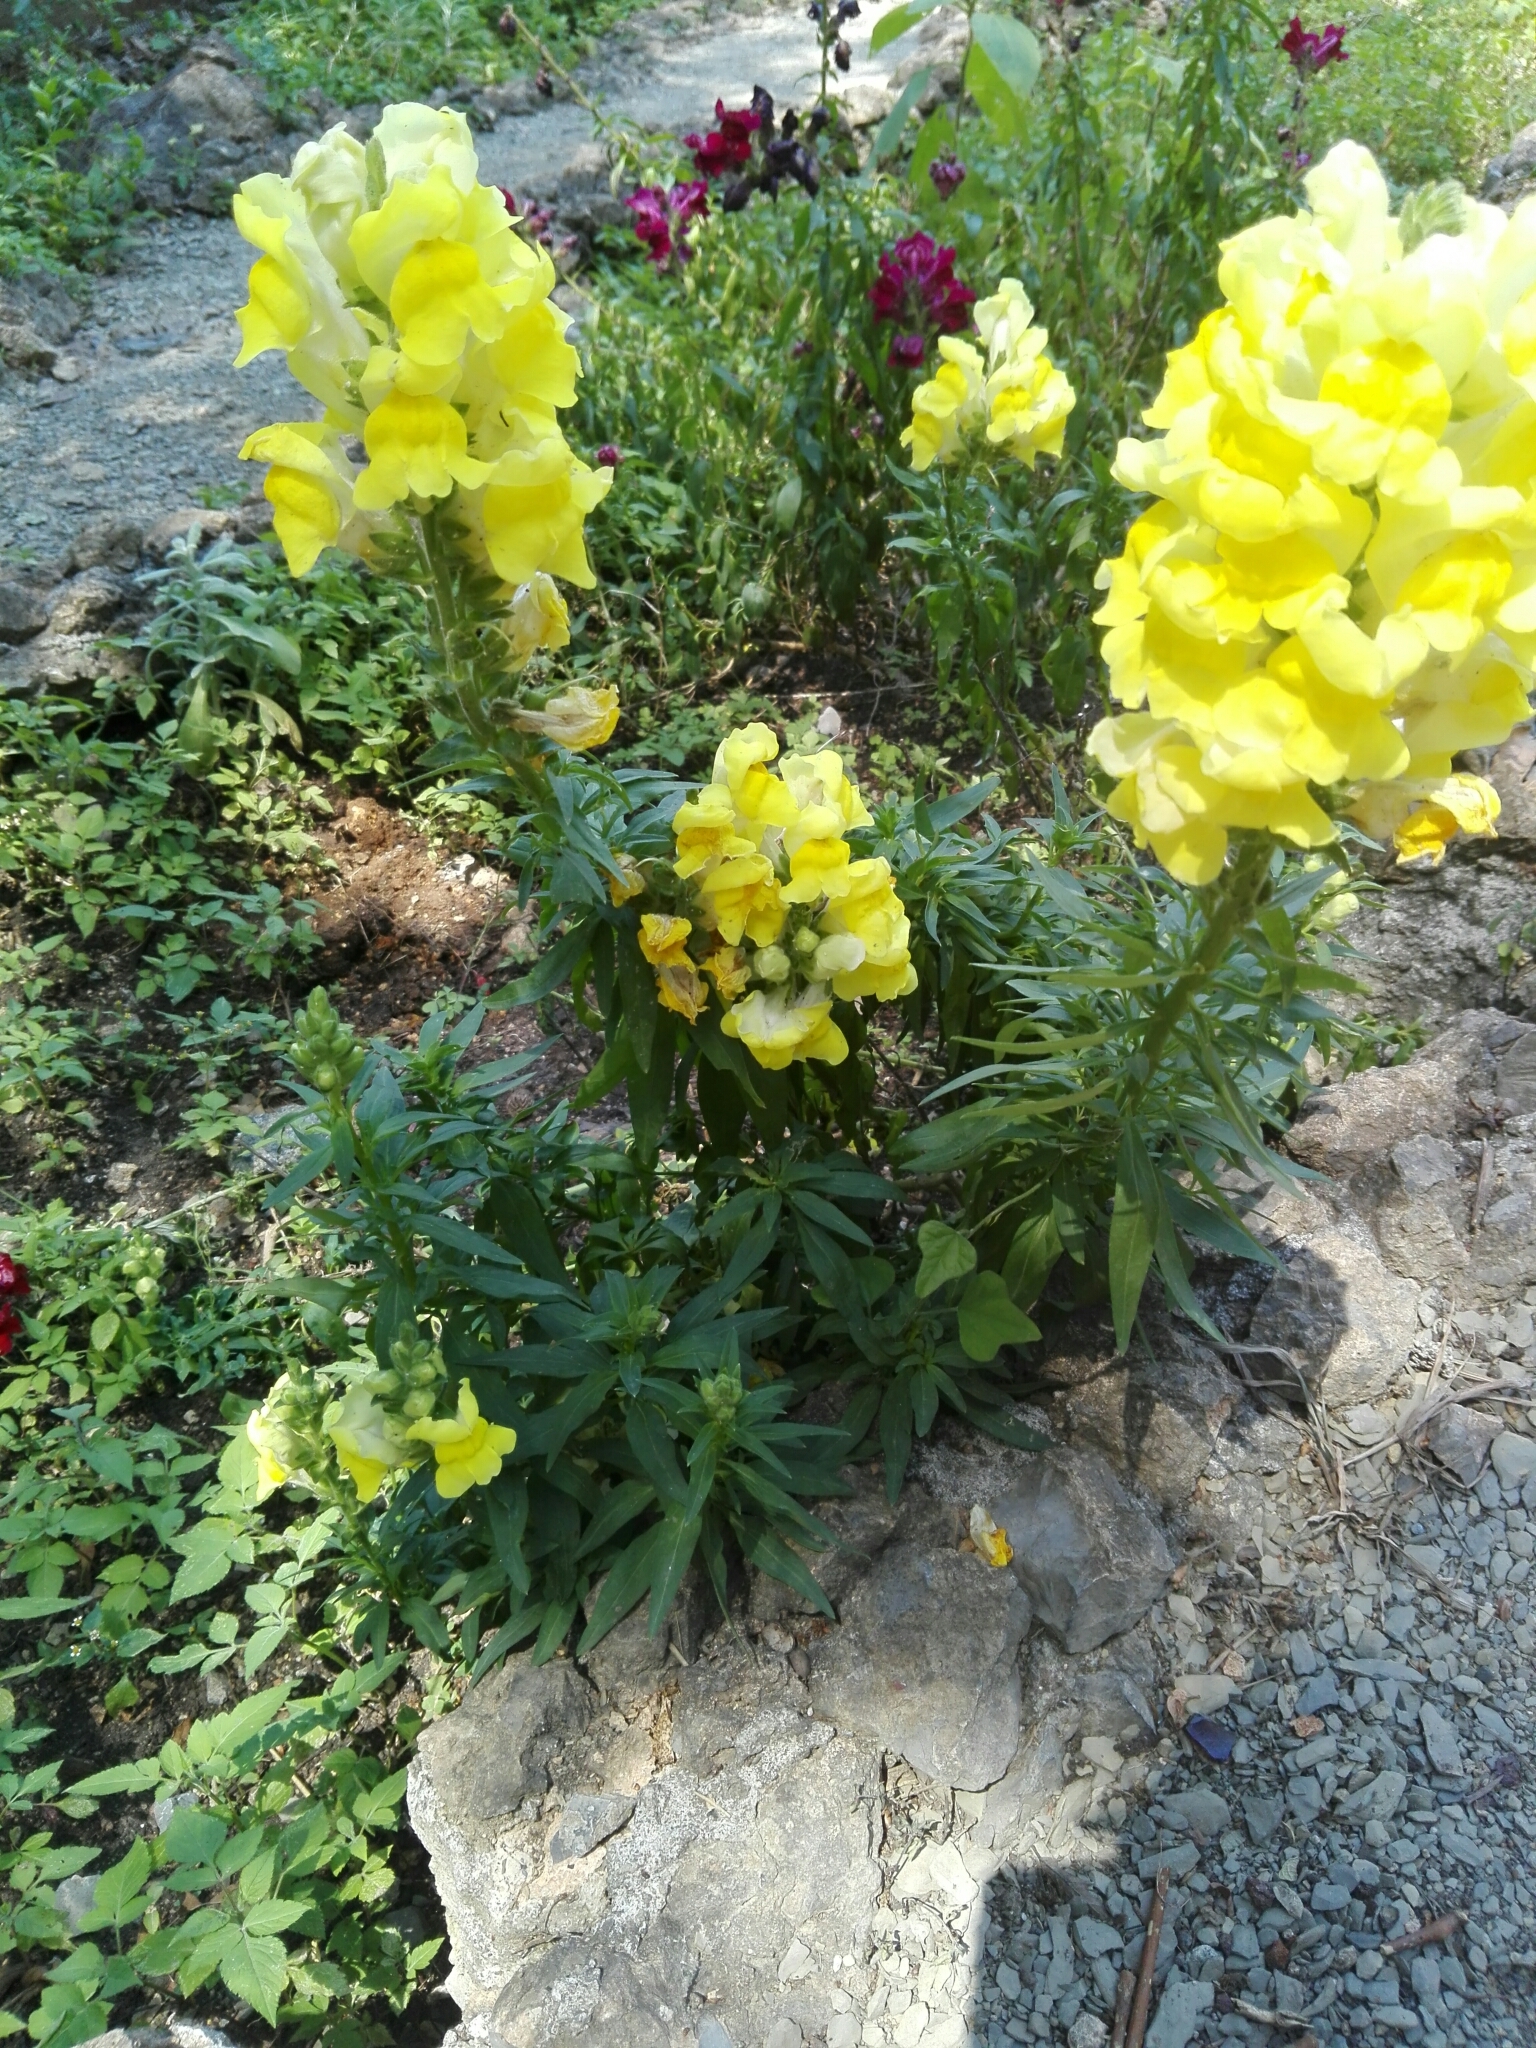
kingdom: Plantae
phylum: Tracheophyta
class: Magnoliopsida
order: Lamiales
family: Plantaginaceae
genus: Antirrhinum
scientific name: Antirrhinum majus
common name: Snapdragon
